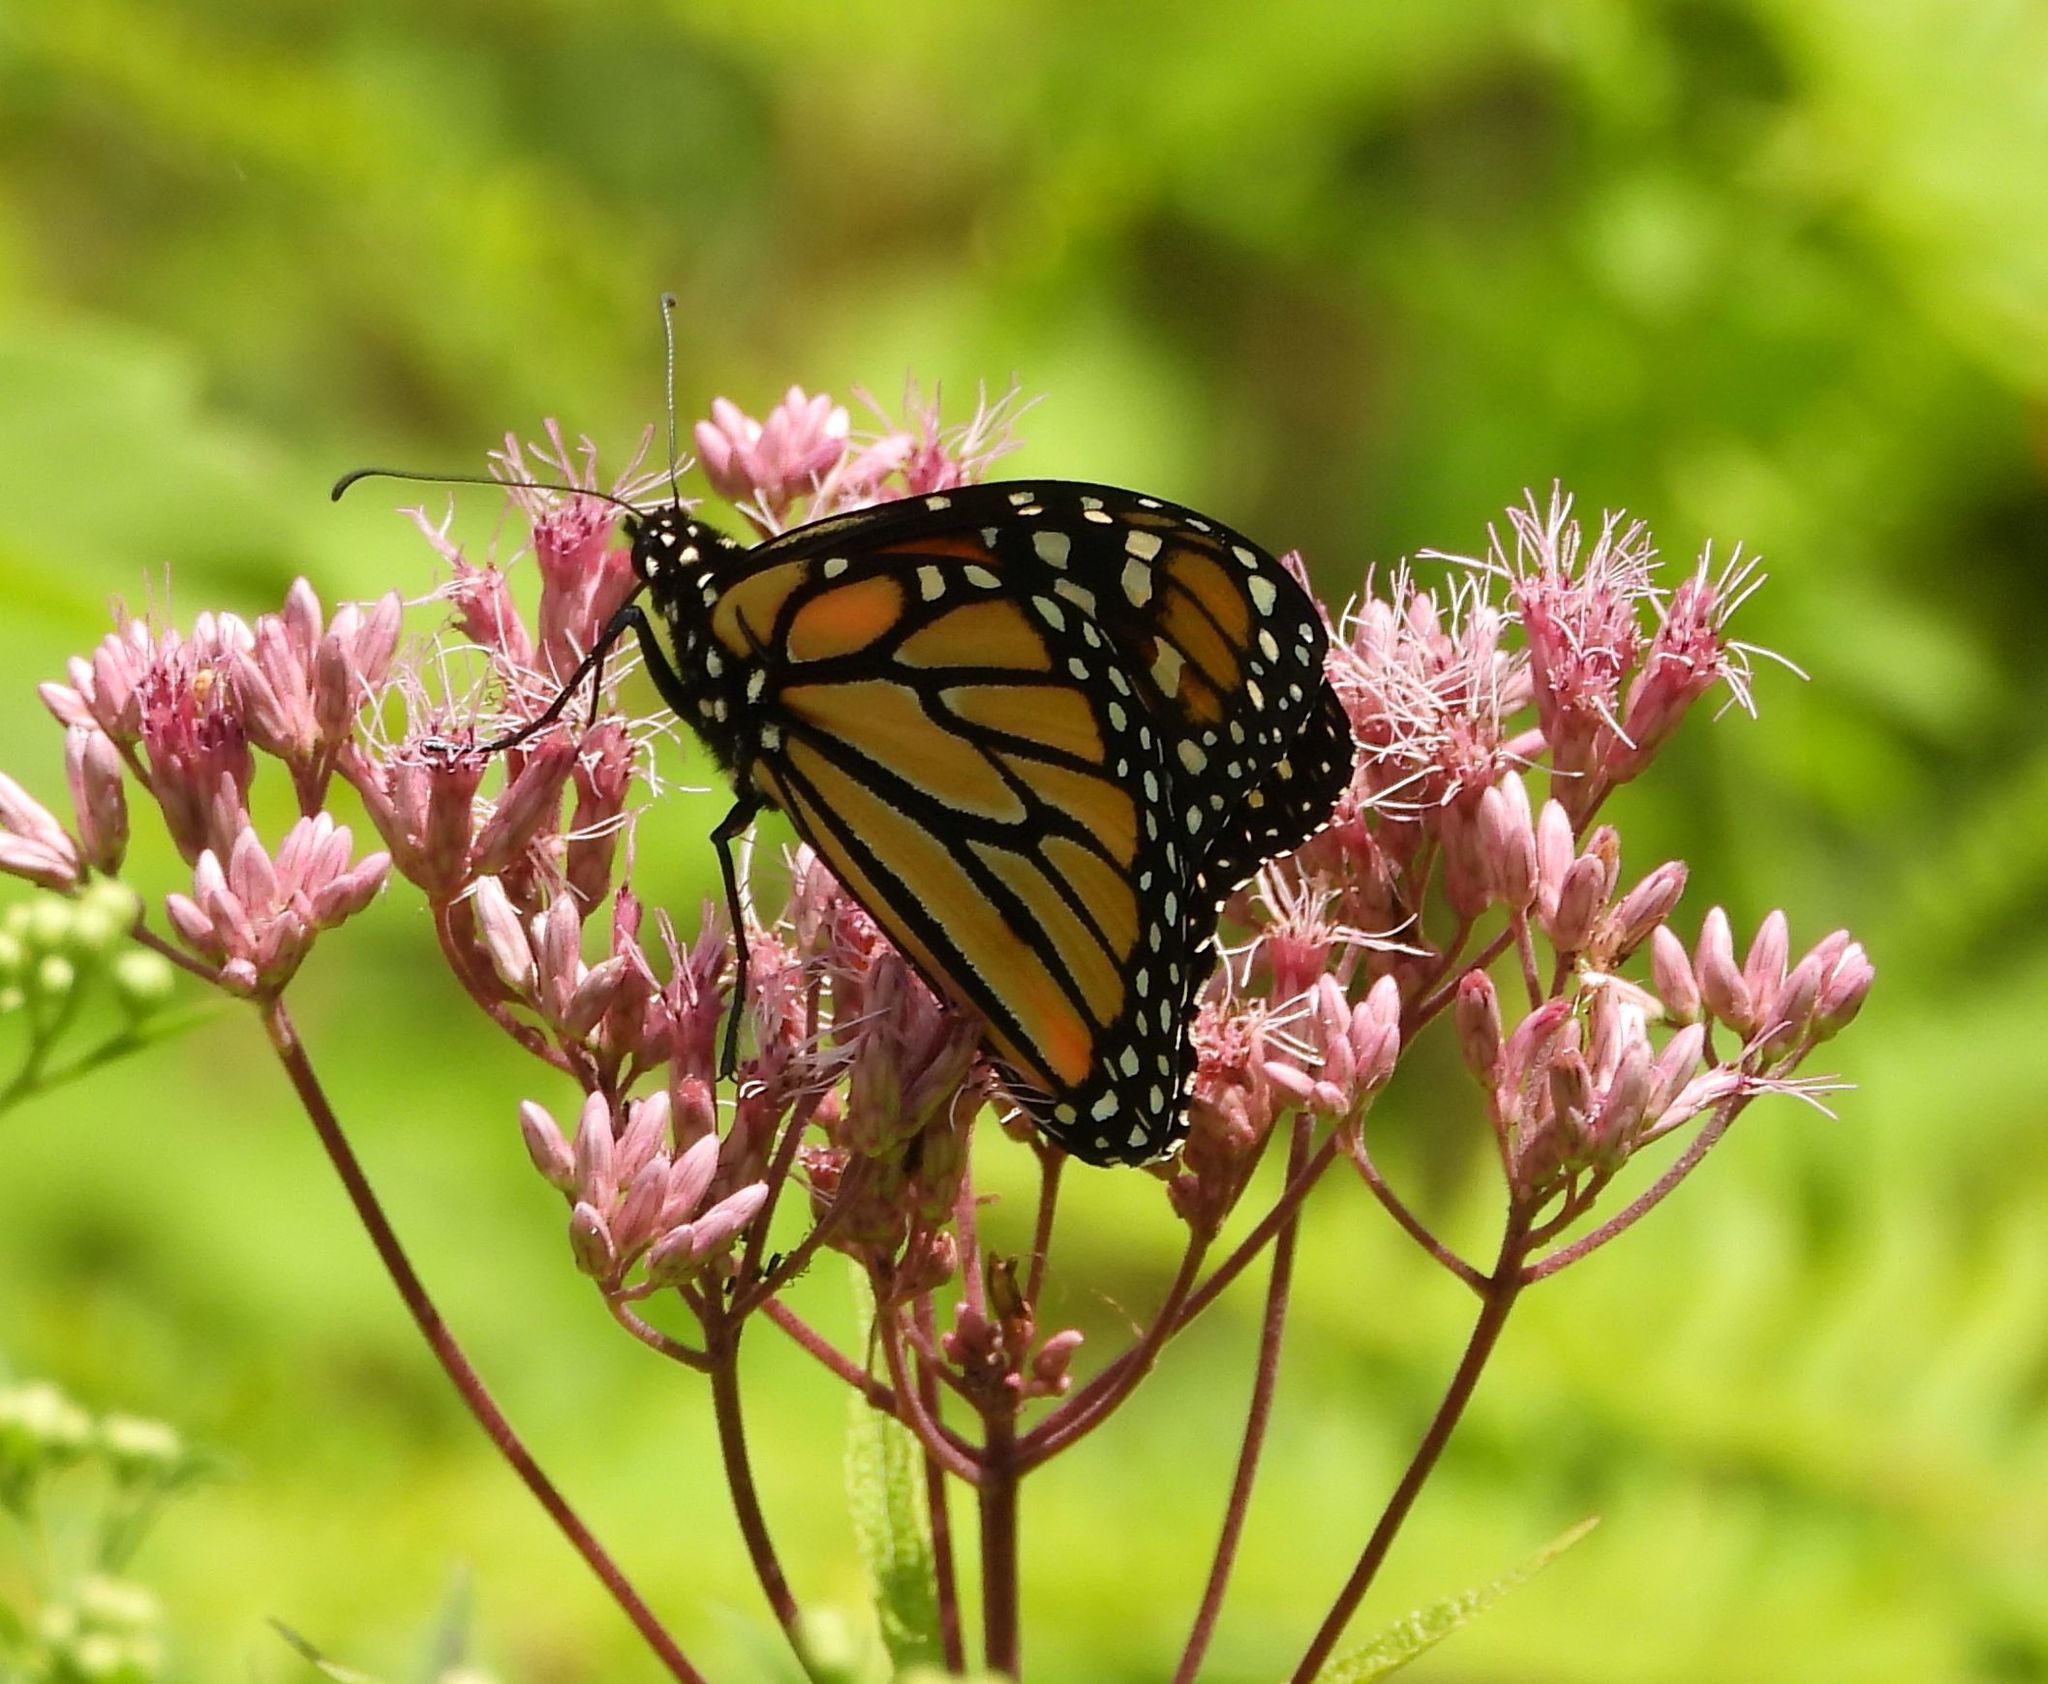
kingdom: Animalia
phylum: Arthropoda
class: Insecta
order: Lepidoptera
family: Nymphalidae
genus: Danaus
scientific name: Danaus plexippus
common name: Monarch
